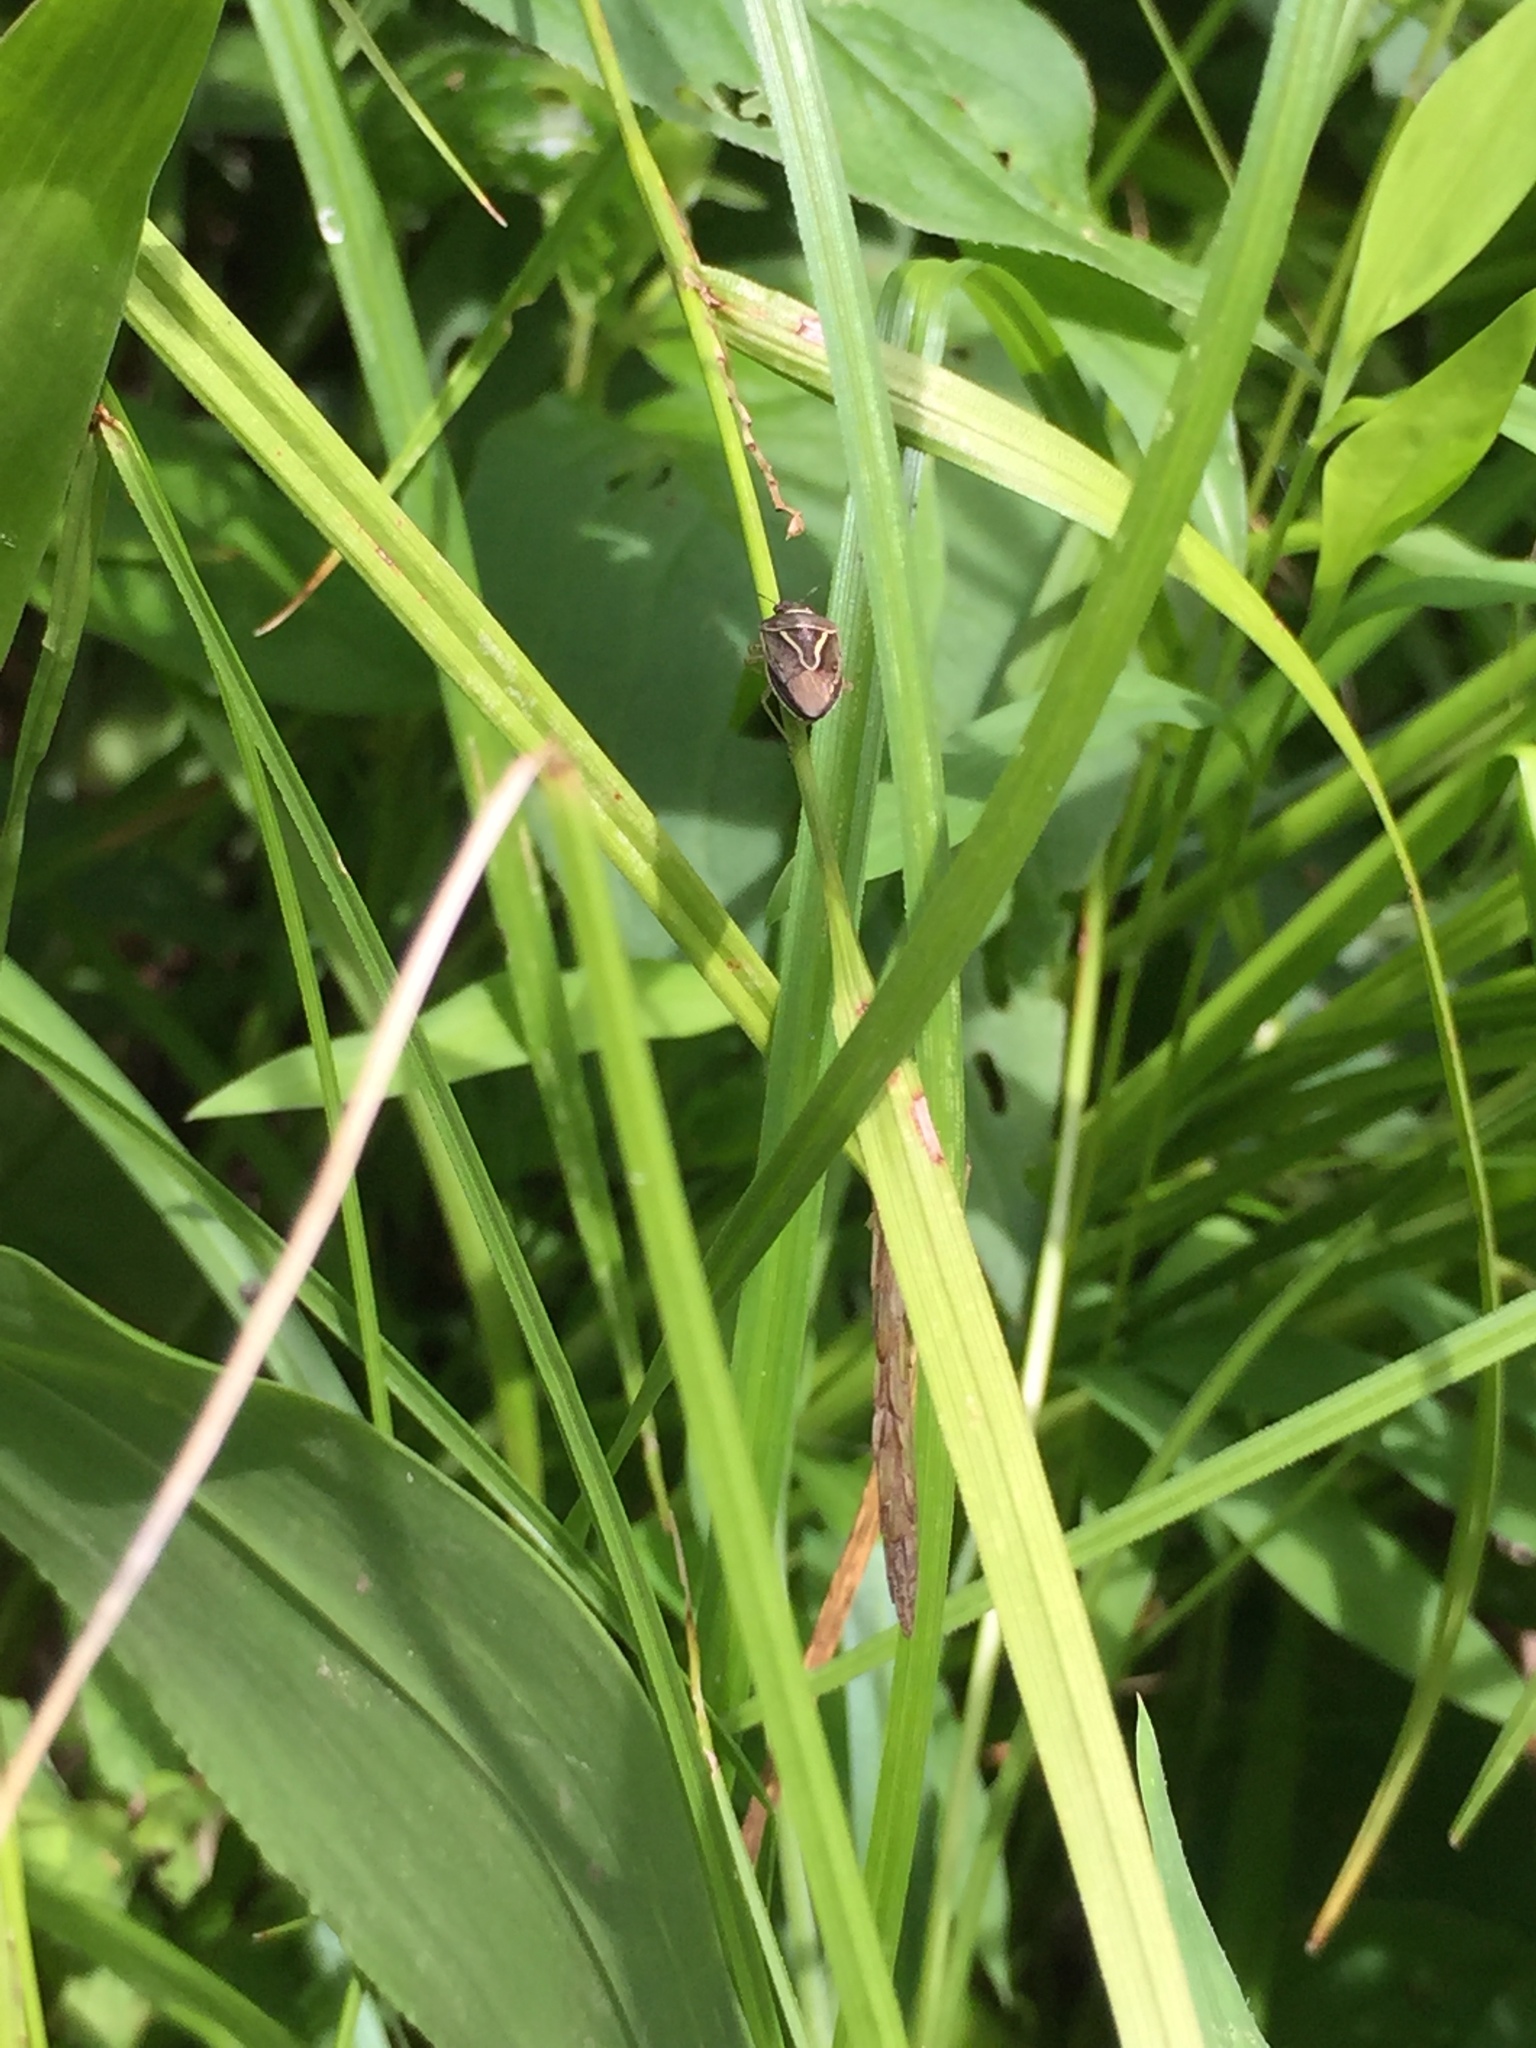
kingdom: Animalia
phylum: Arthropoda
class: Insecta
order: Hemiptera
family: Pentatomidae
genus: Mormidea
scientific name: Mormidea lugens
